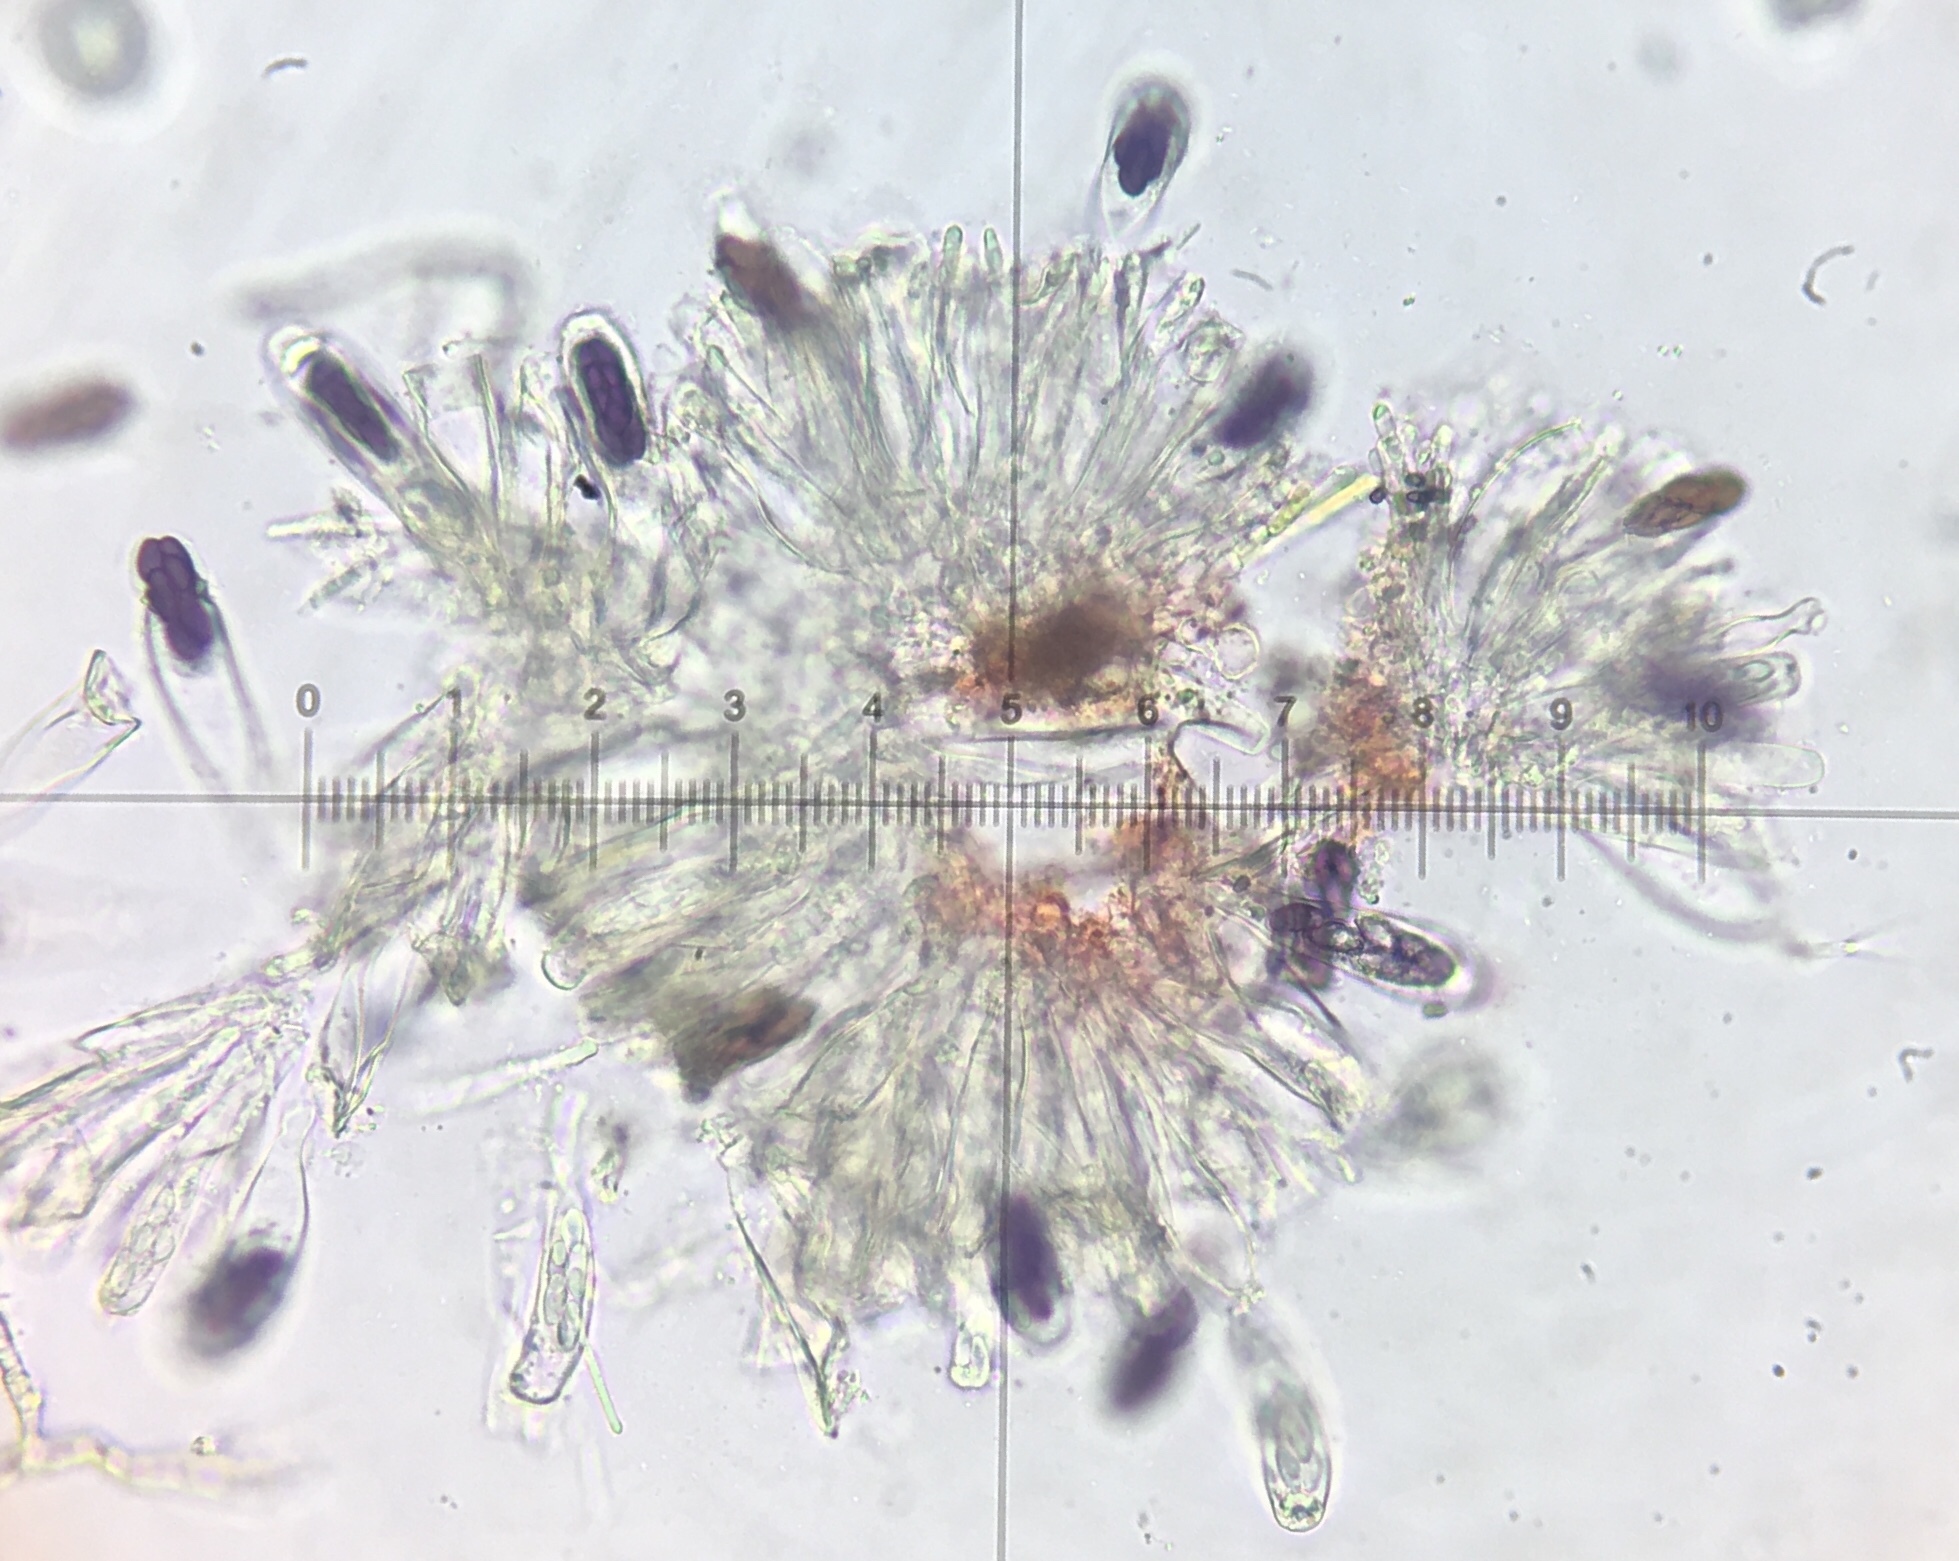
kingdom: Fungi
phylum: Ascomycota
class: Pezizomycetes
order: Pezizales
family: Ascobolaceae
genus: Saccobolus
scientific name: Saccobolus depauperatus
